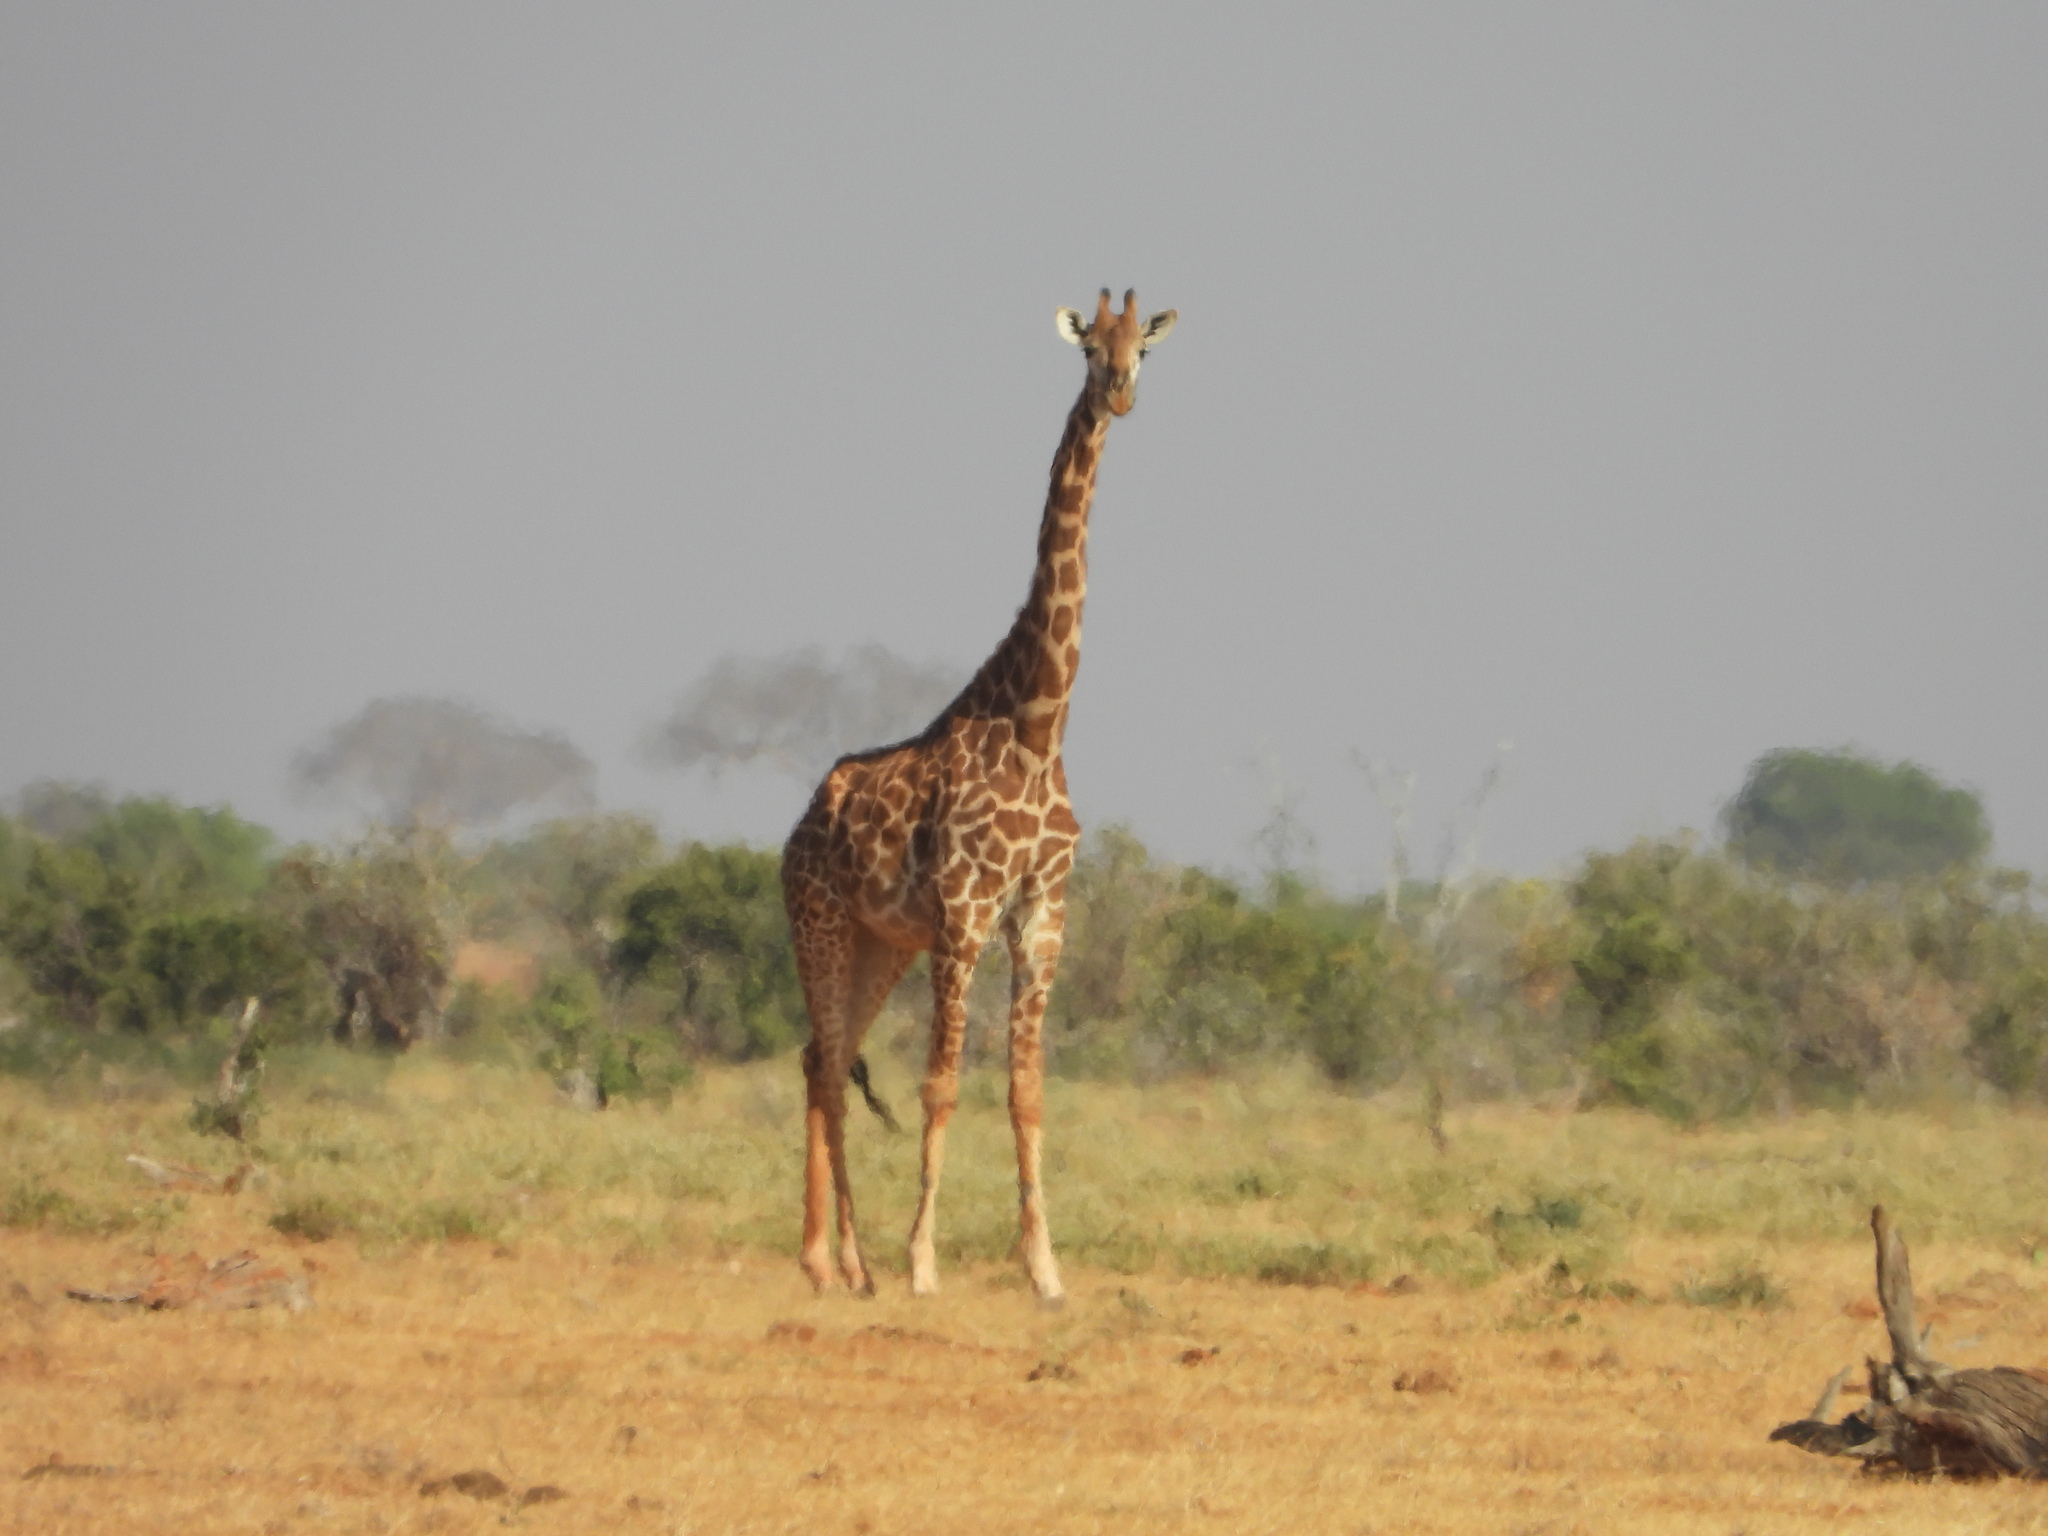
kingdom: Animalia
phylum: Chordata
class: Mammalia
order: Artiodactyla
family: Giraffidae
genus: Giraffa
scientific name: Giraffa tippelskirchi
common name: Masai giraffe
